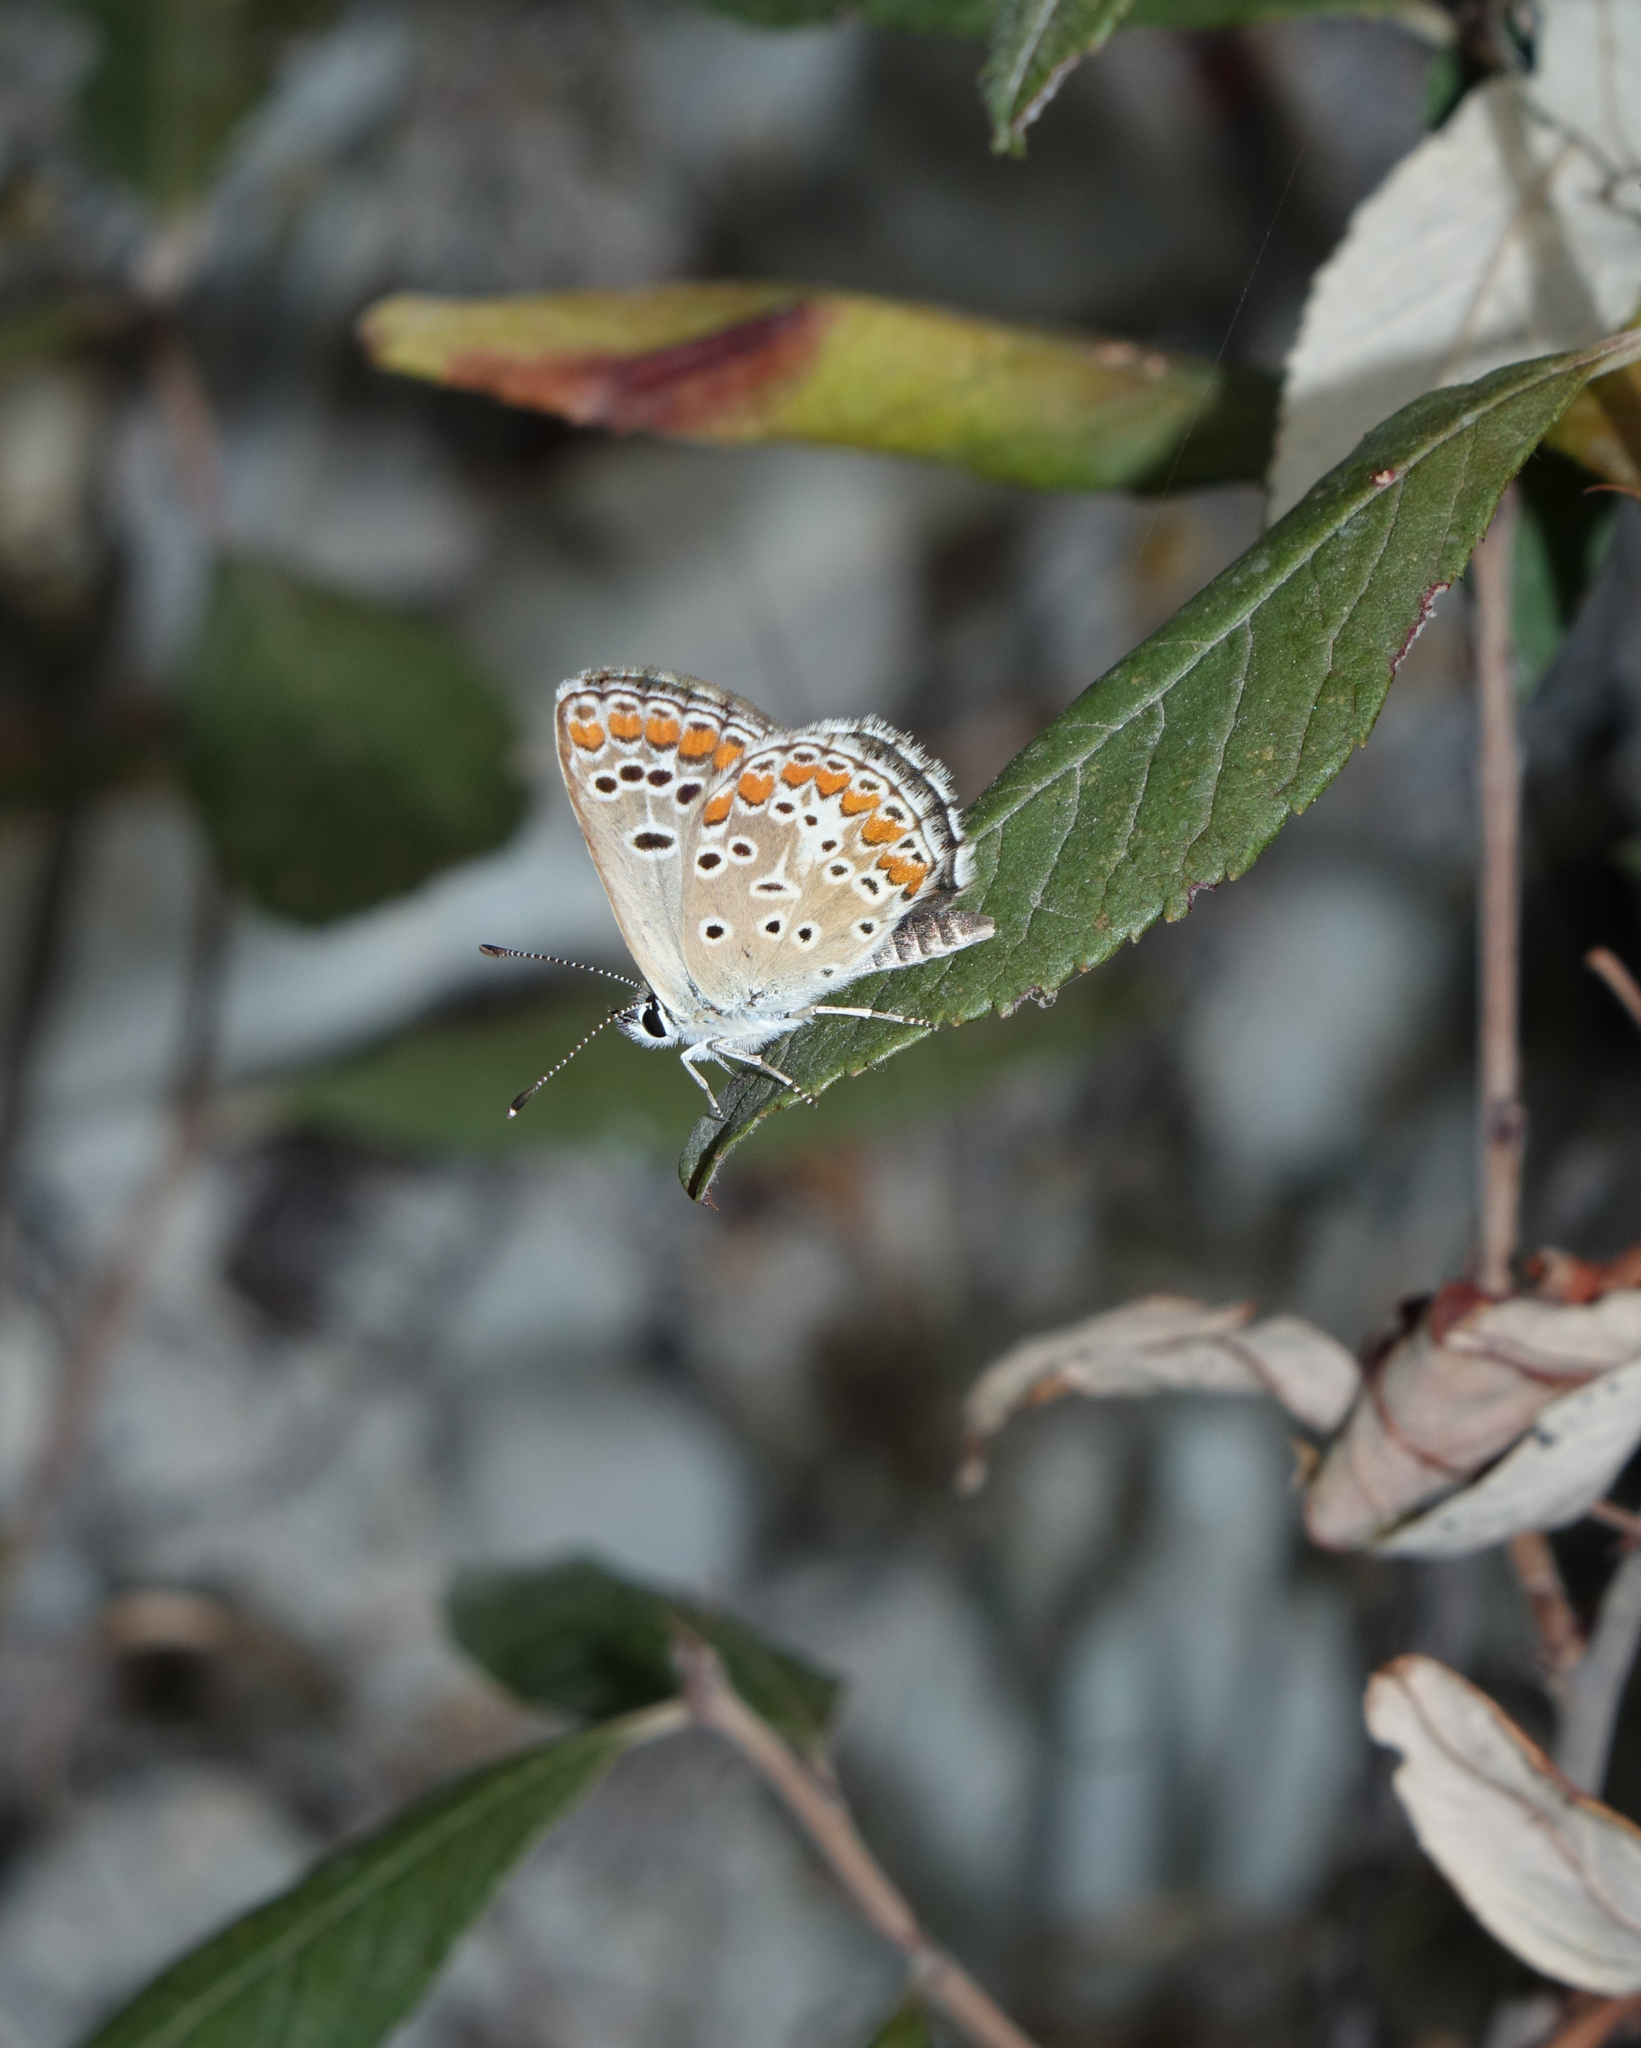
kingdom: Animalia
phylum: Arthropoda
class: Insecta
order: Lepidoptera
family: Lycaenidae
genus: Aricia
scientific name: Aricia agestis
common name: Brown argus
